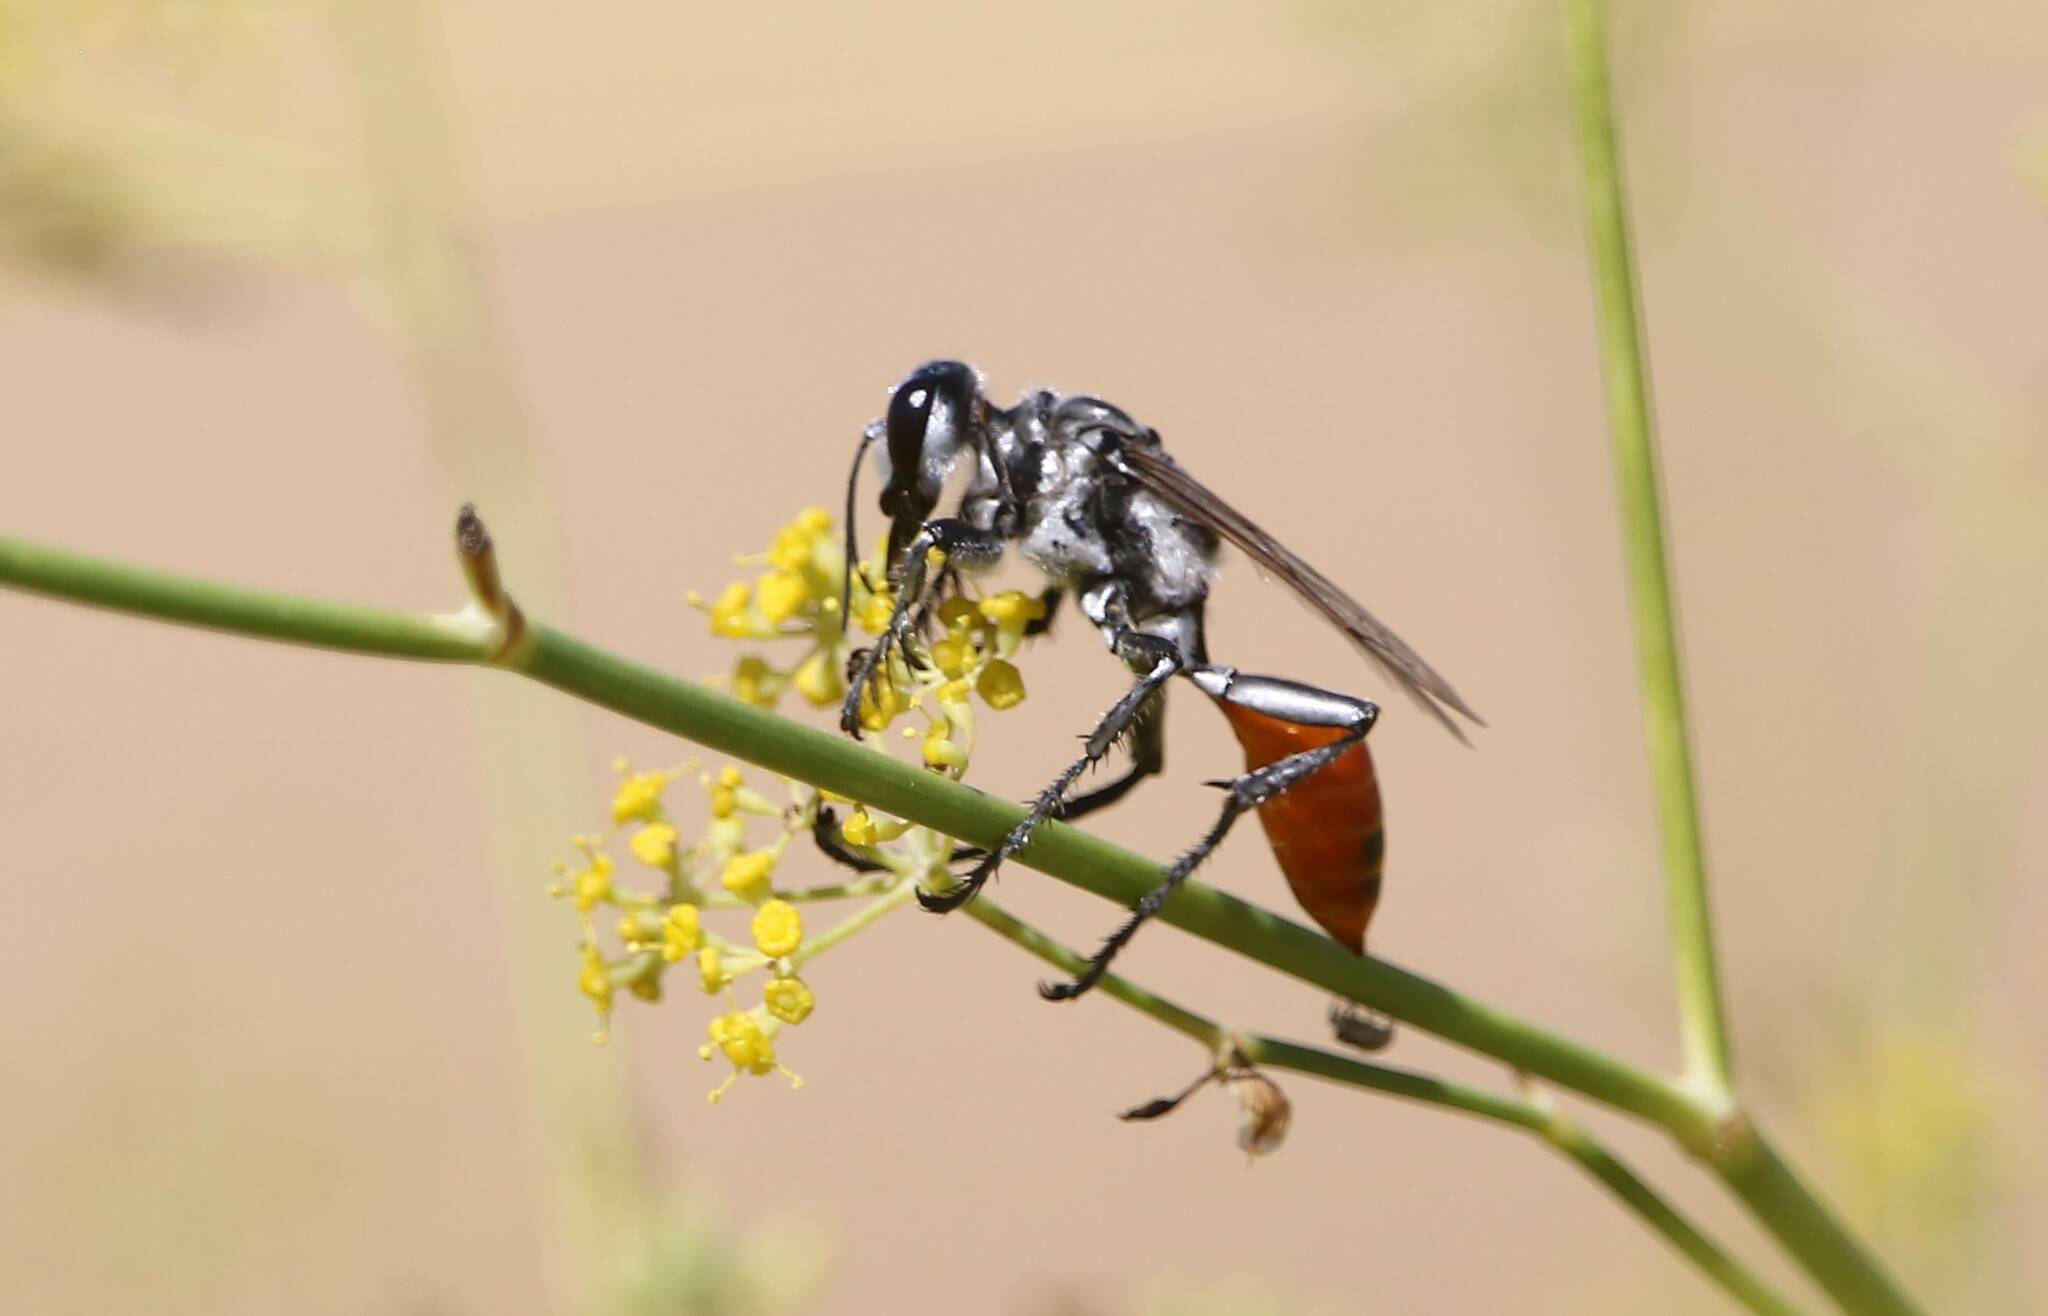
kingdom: Animalia
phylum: Arthropoda
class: Insecta
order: Hymenoptera
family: Sphecidae
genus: Prionyx
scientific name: Prionyx viduatus
